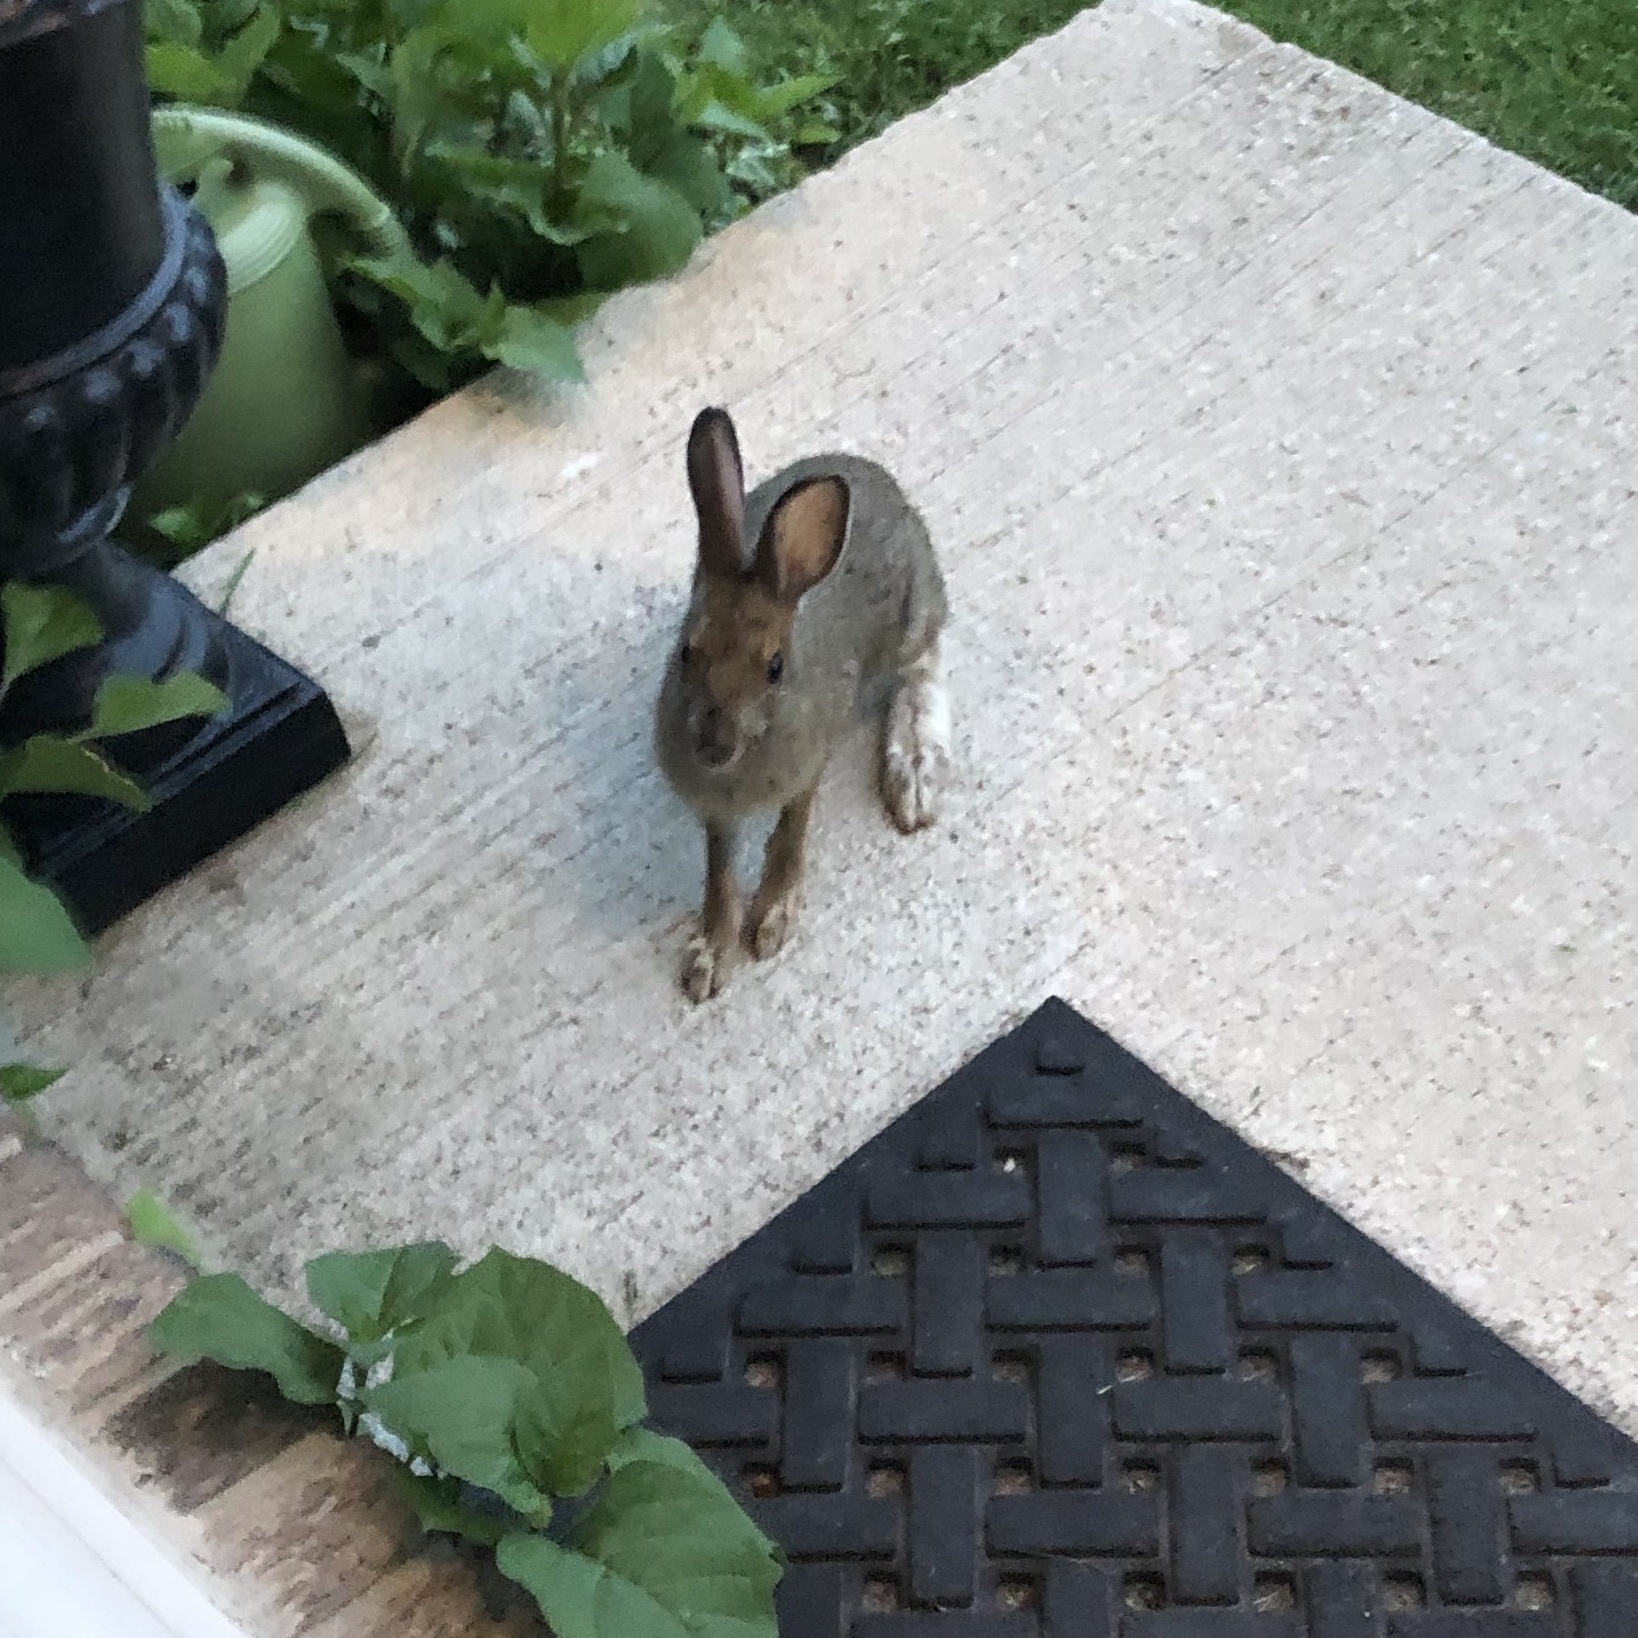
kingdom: Animalia
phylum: Chordata
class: Mammalia
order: Lagomorpha
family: Leporidae
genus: Lepus
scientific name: Lepus americanus
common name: Snowshoe hare
